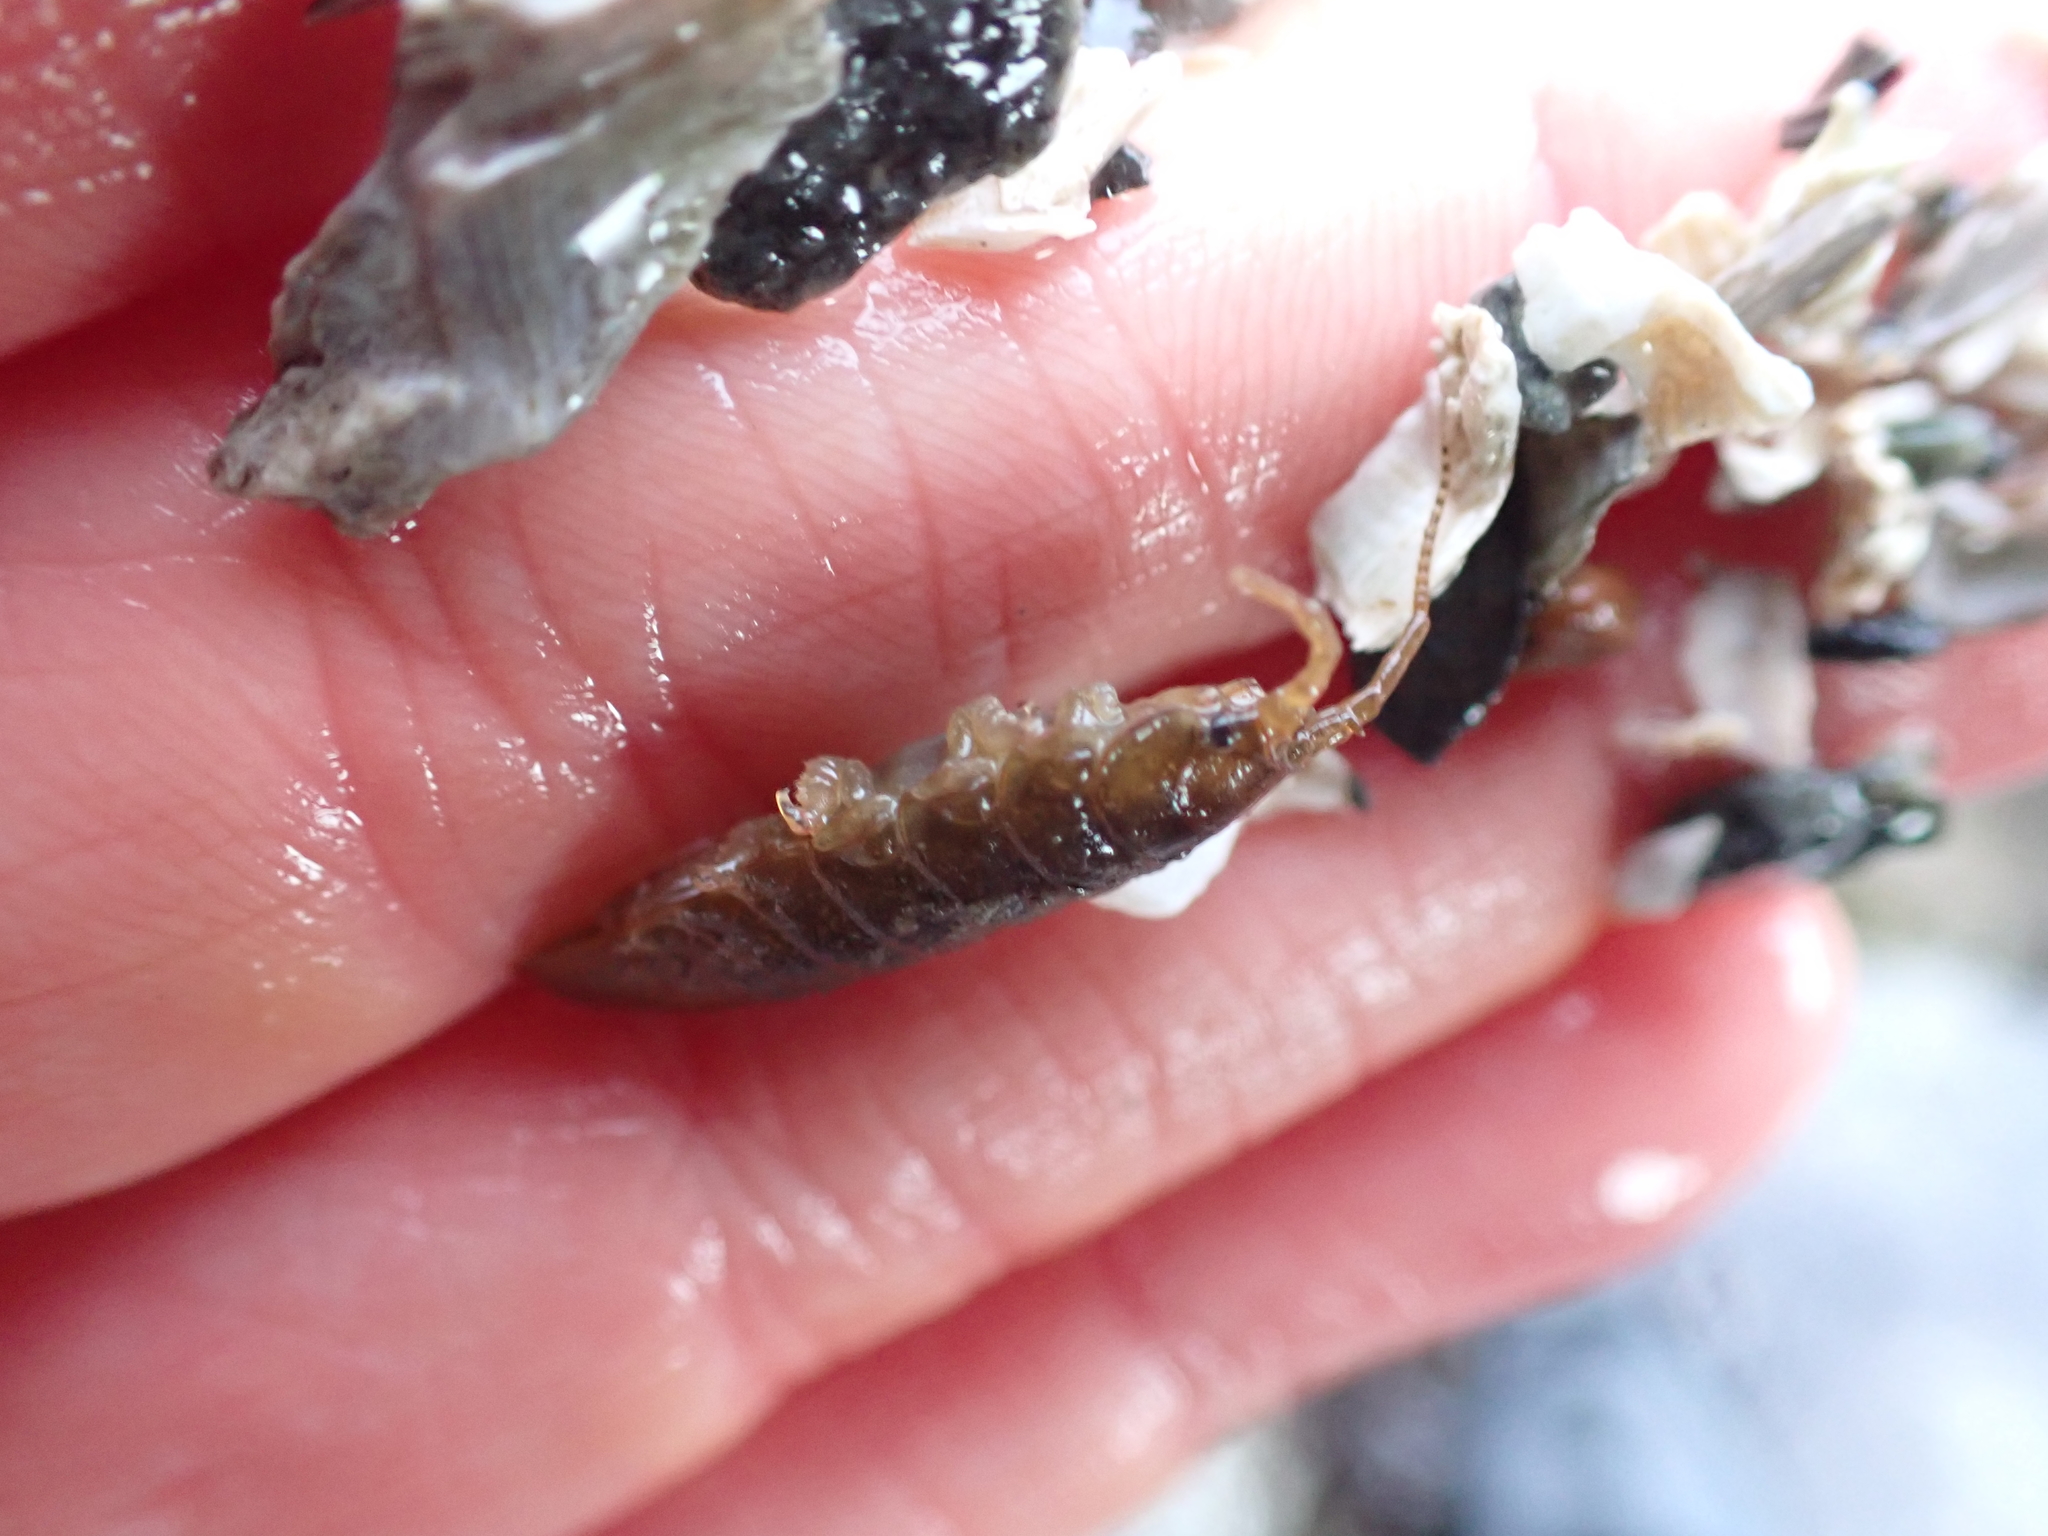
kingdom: Animalia
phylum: Arthropoda
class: Malacostraca
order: Isopoda
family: Idoteidae
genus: Pentidotea
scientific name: Pentidotea wosnesenskii
